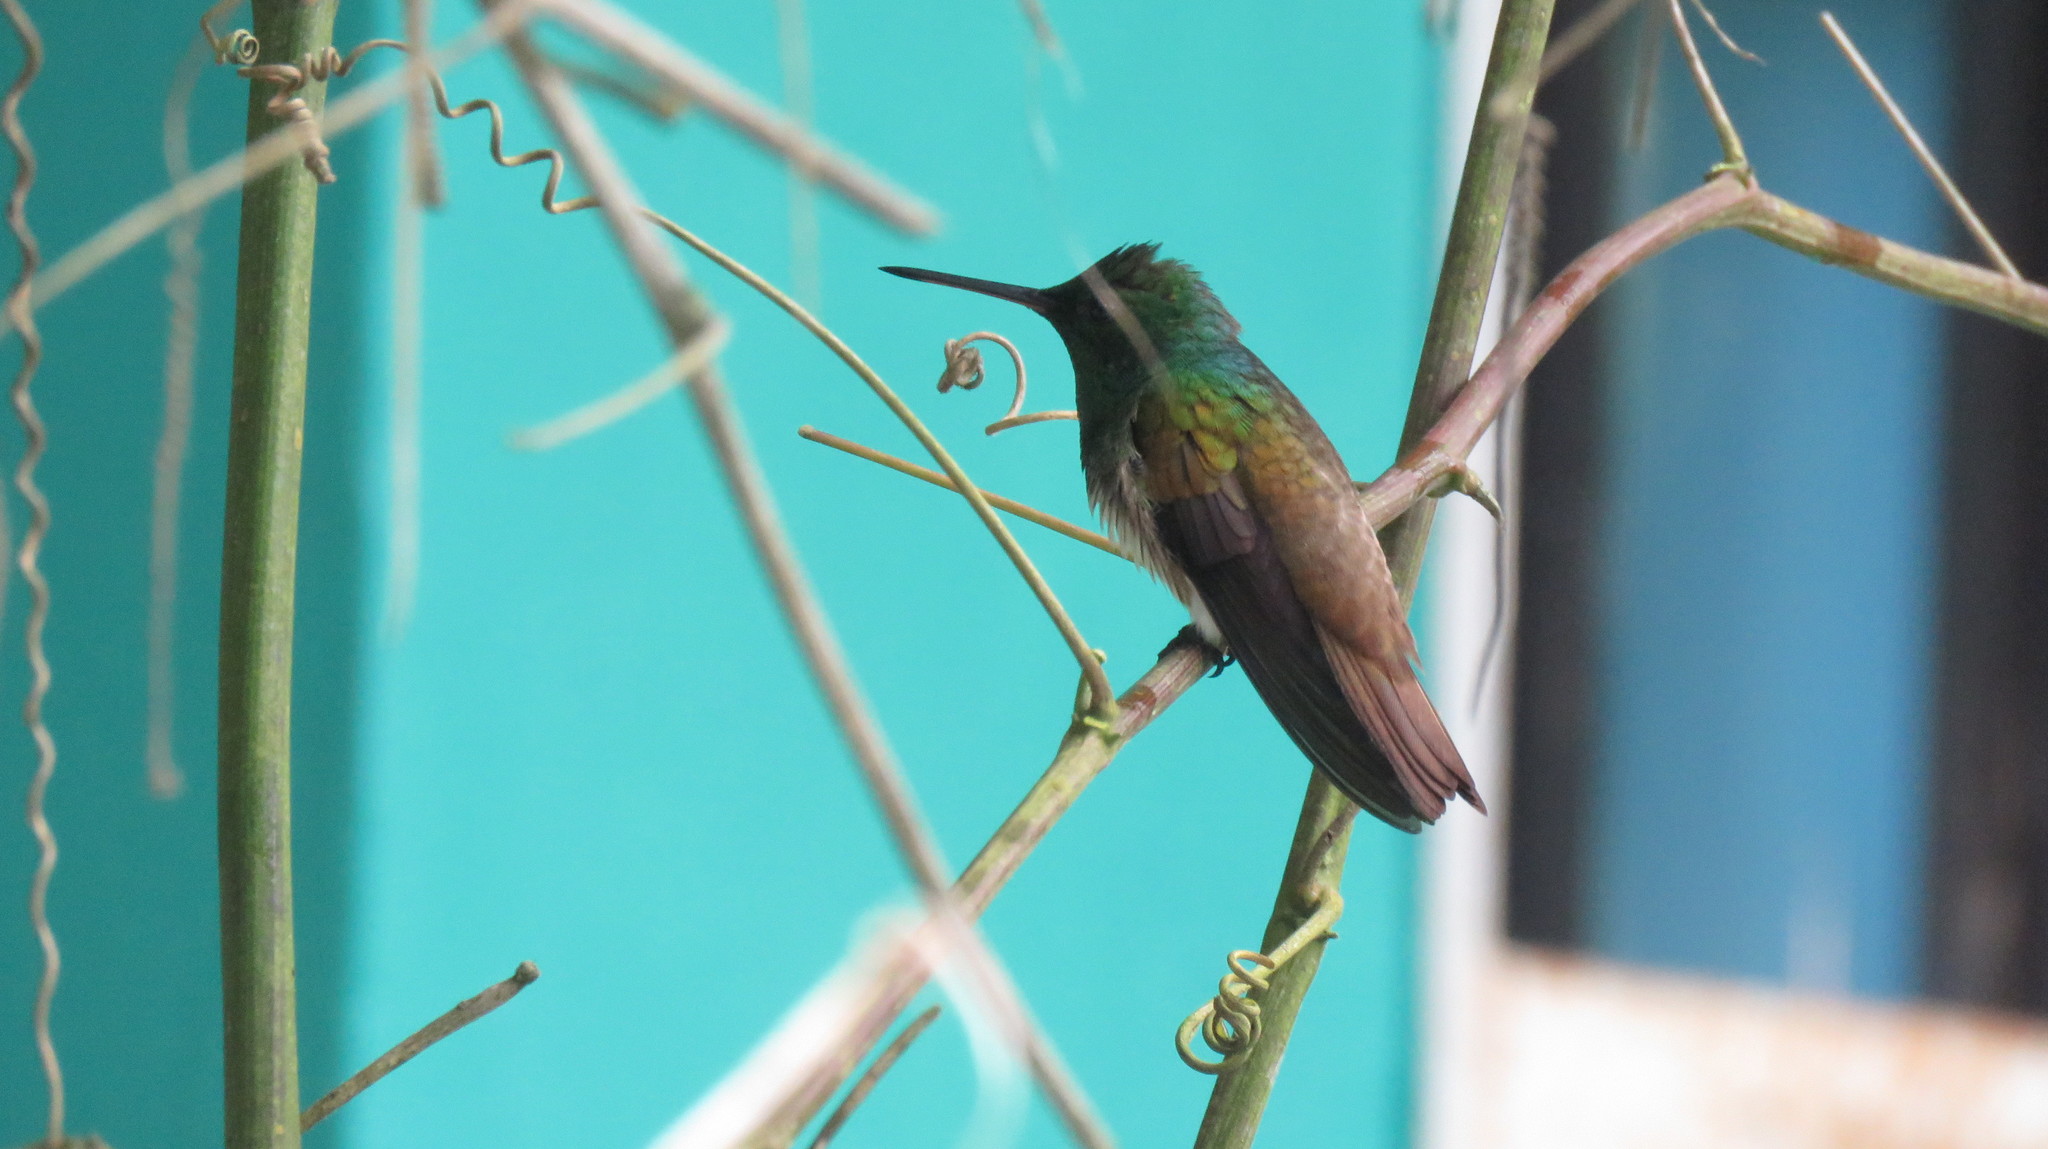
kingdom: Animalia
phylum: Chordata
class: Aves
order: Apodiformes
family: Trochilidae
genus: Saucerottia
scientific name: Saucerottia edward
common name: Snowy-bellied hummingbird
